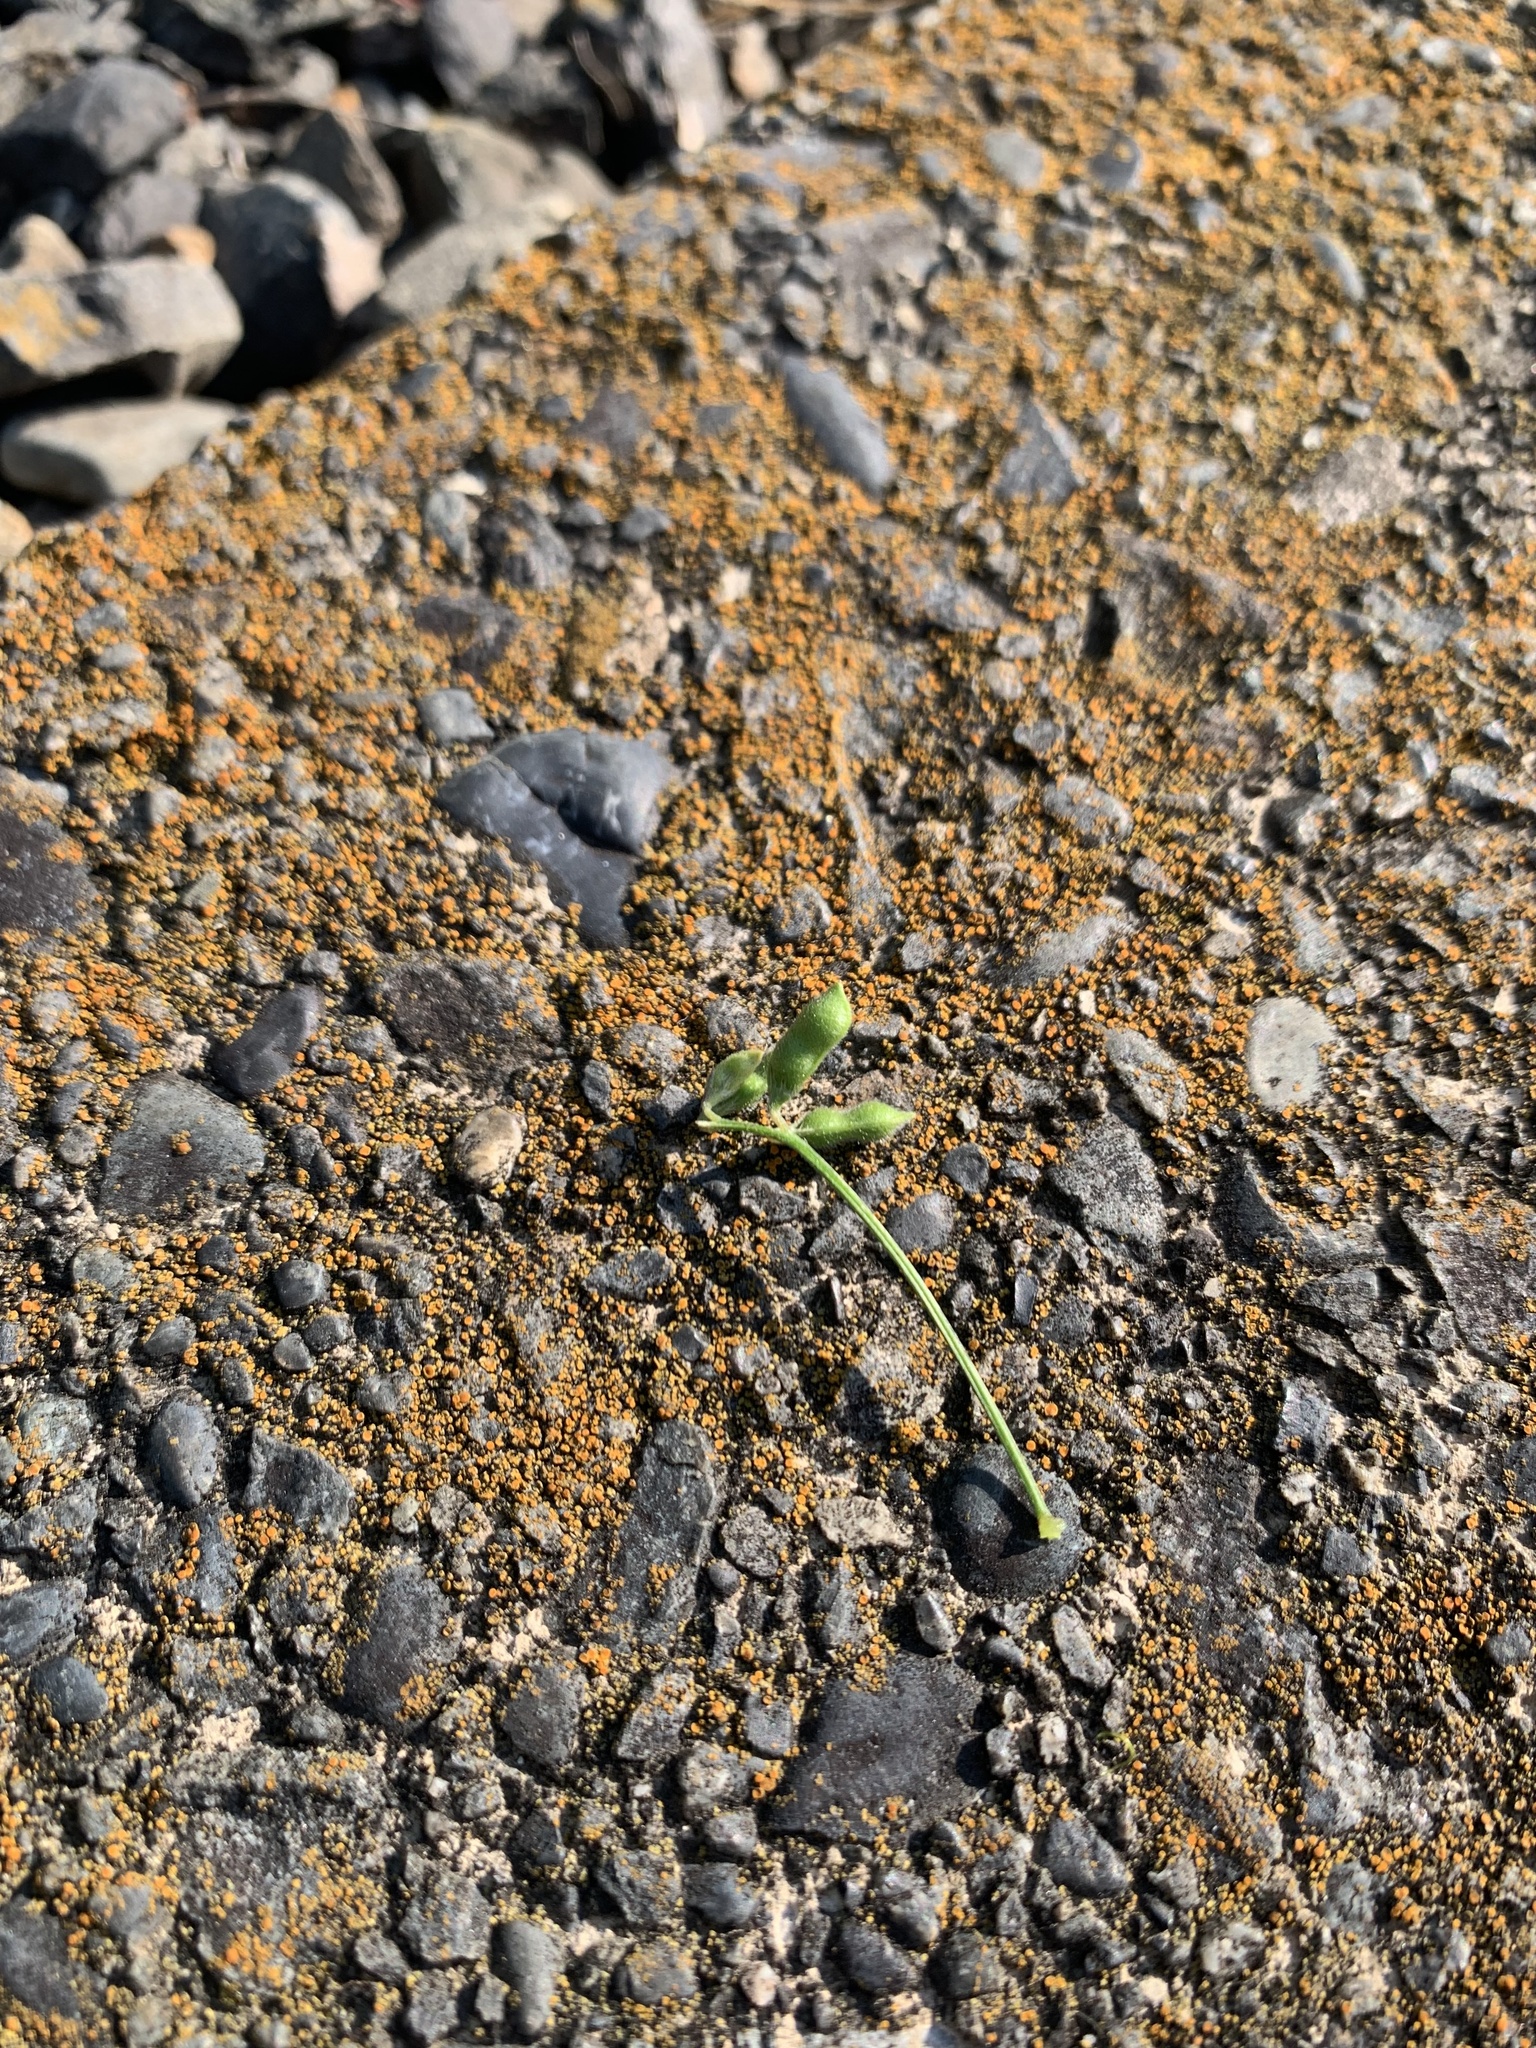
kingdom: Plantae
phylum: Tracheophyta
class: Magnoliopsida
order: Fabales
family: Fabaceae
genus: Vicia
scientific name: Vicia hirsuta
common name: Tiny vetch
